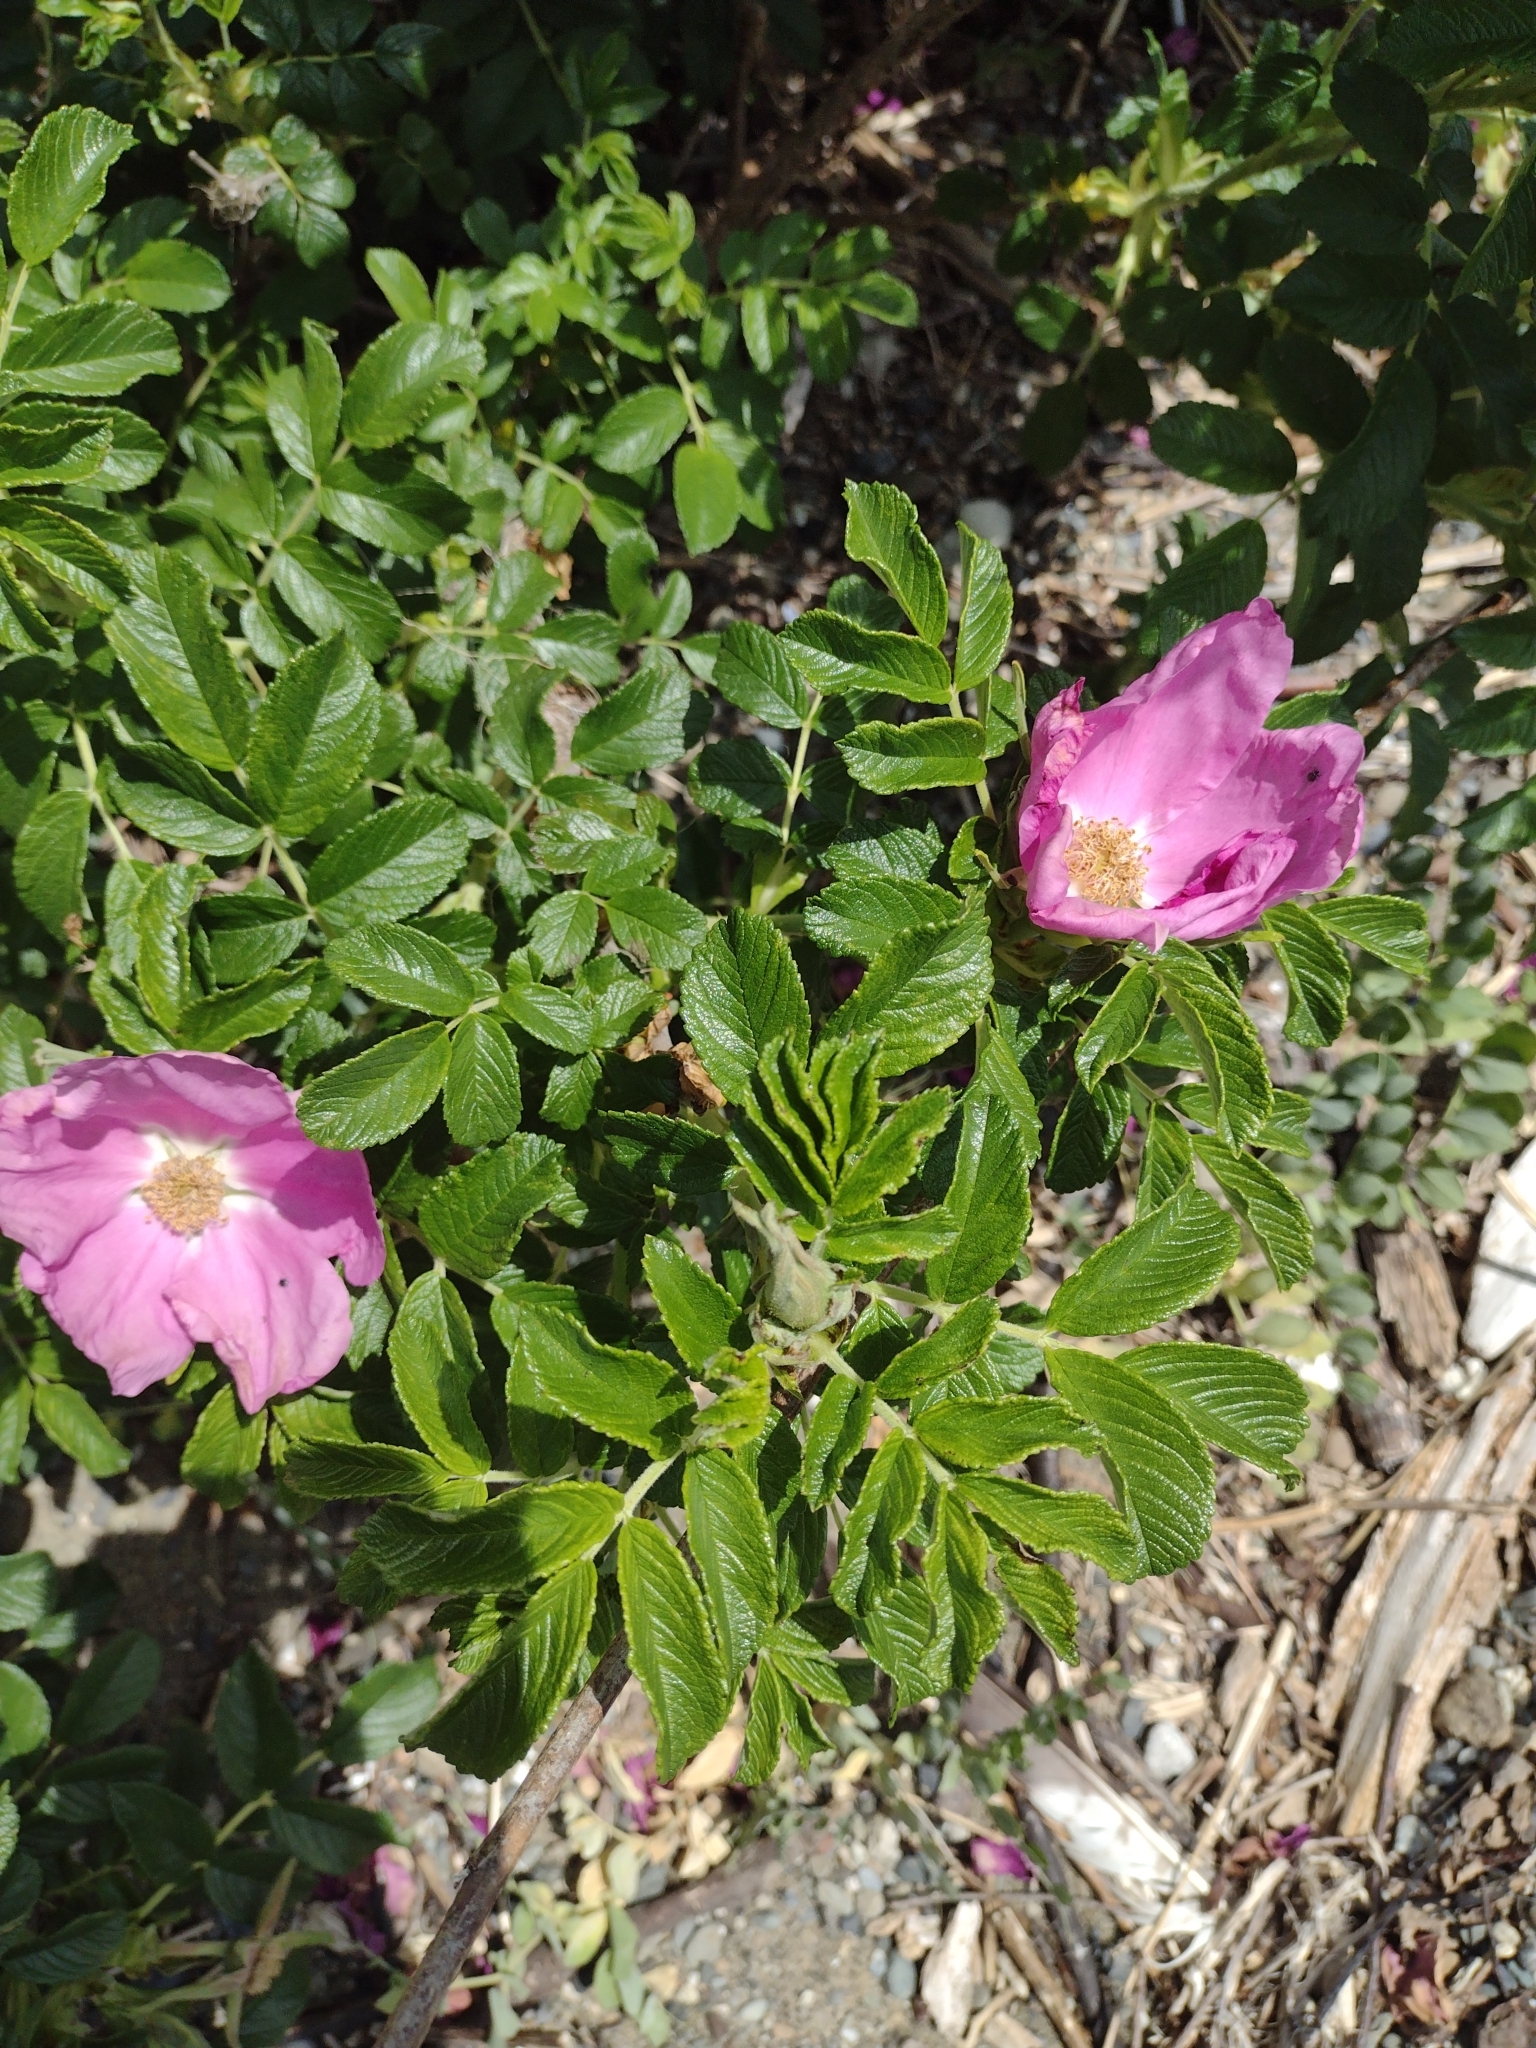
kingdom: Plantae
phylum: Tracheophyta
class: Magnoliopsida
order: Rosales
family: Rosaceae
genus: Rosa
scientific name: Rosa rugosa
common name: Japanese rose
